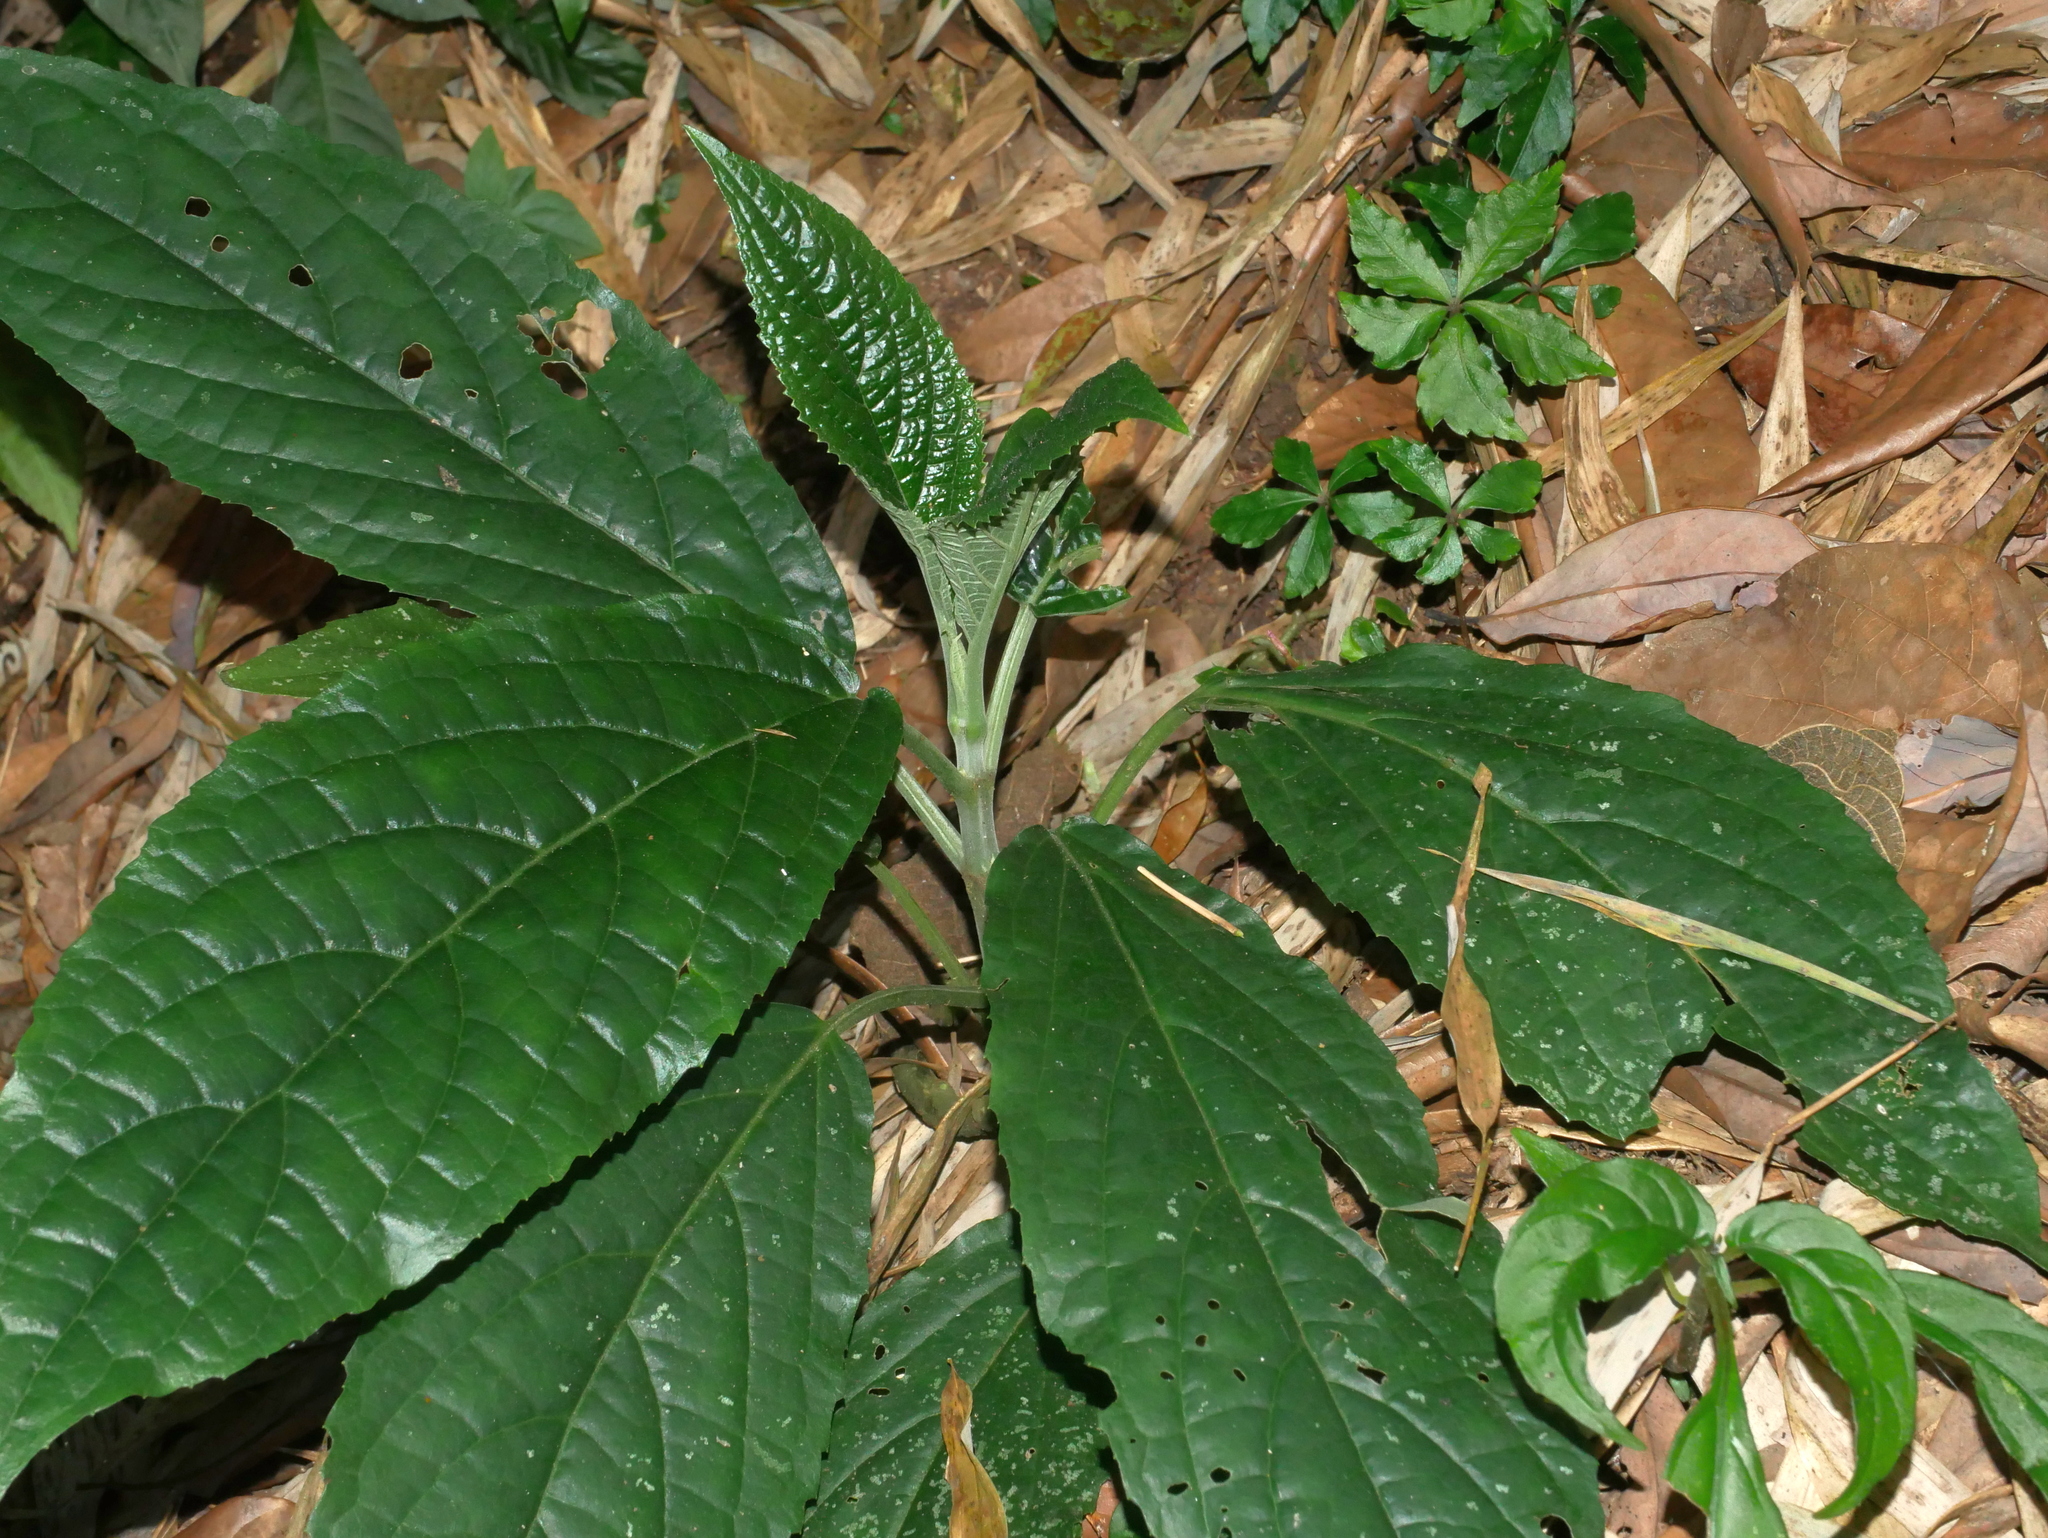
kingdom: Plantae
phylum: Tracheophyta
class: Magnoliopsida
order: Lamiales
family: Lamiaceae
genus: Paraphlomis
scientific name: Paraphlomis javanica
